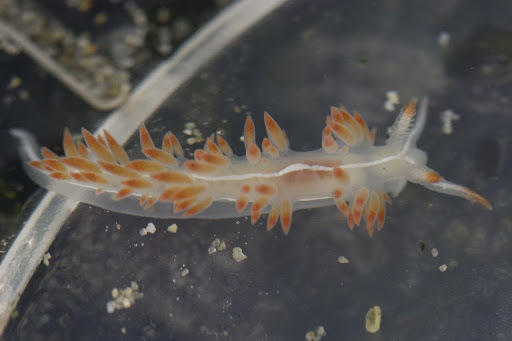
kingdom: Animalia
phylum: Mollusca
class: Gastropoda
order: Nudibranchia
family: Coryphellidae
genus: Coryphella
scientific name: Coryphella trilineata
